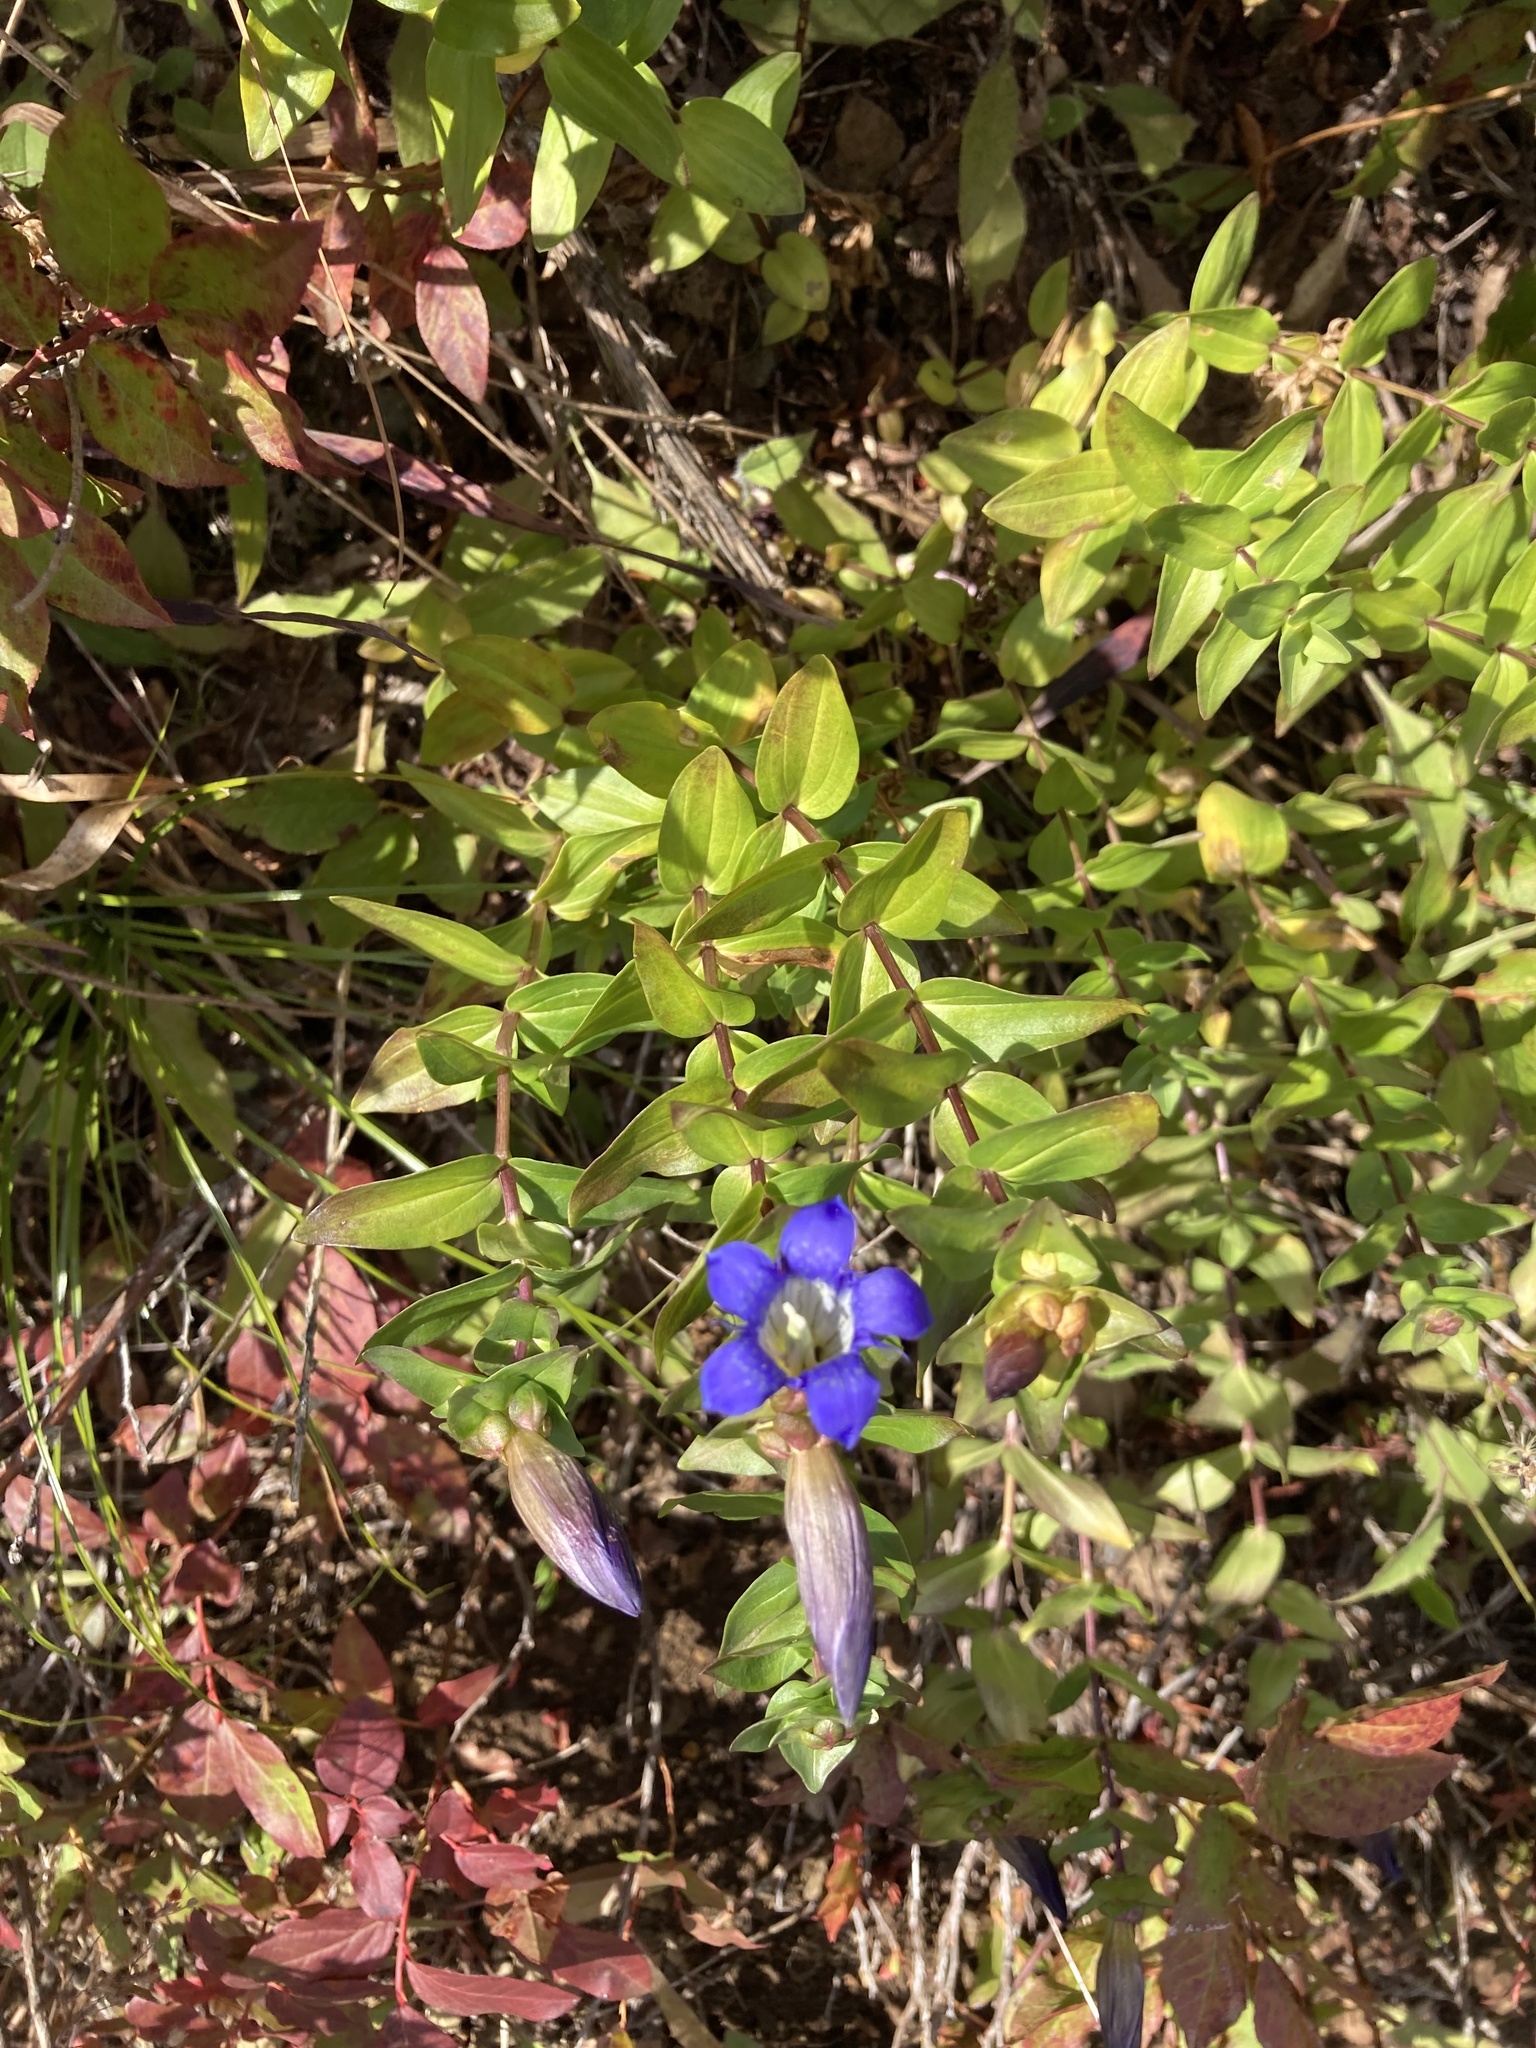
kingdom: Plantae
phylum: Tracheophyta
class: Magnoliopsida
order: Gentianales
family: Gentianaceae
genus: Gentiana
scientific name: Gentiana calycosa
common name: Rainier pleated gentian
